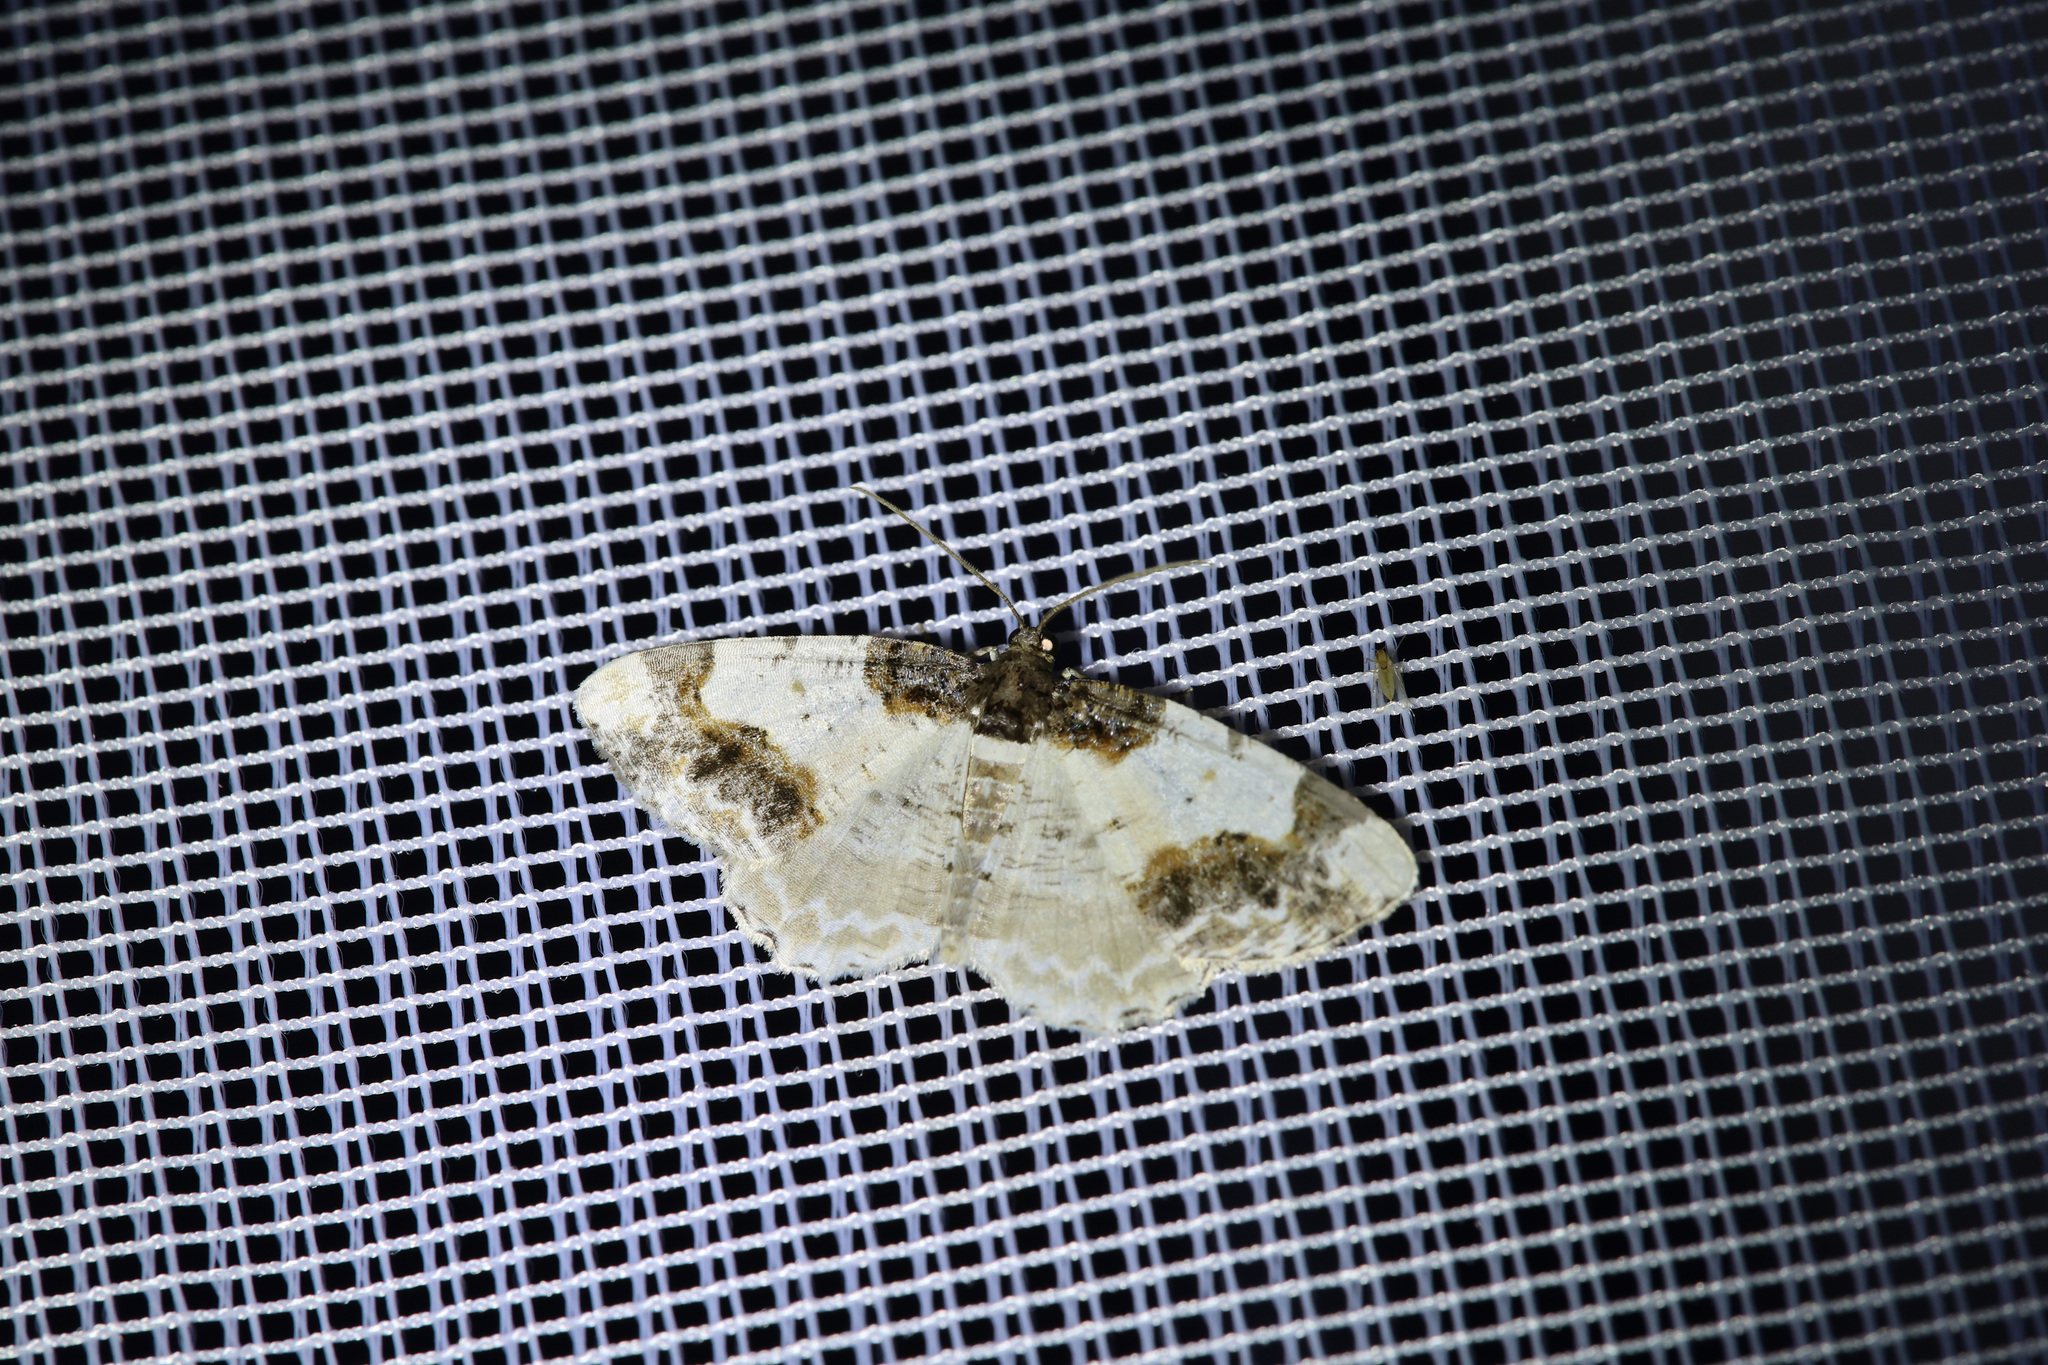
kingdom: Animalia
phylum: Arthropoda
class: Insecta
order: Lepidoptera
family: Geometridae
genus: Ligdia
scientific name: Ligdia adustata
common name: Scorched carpet
